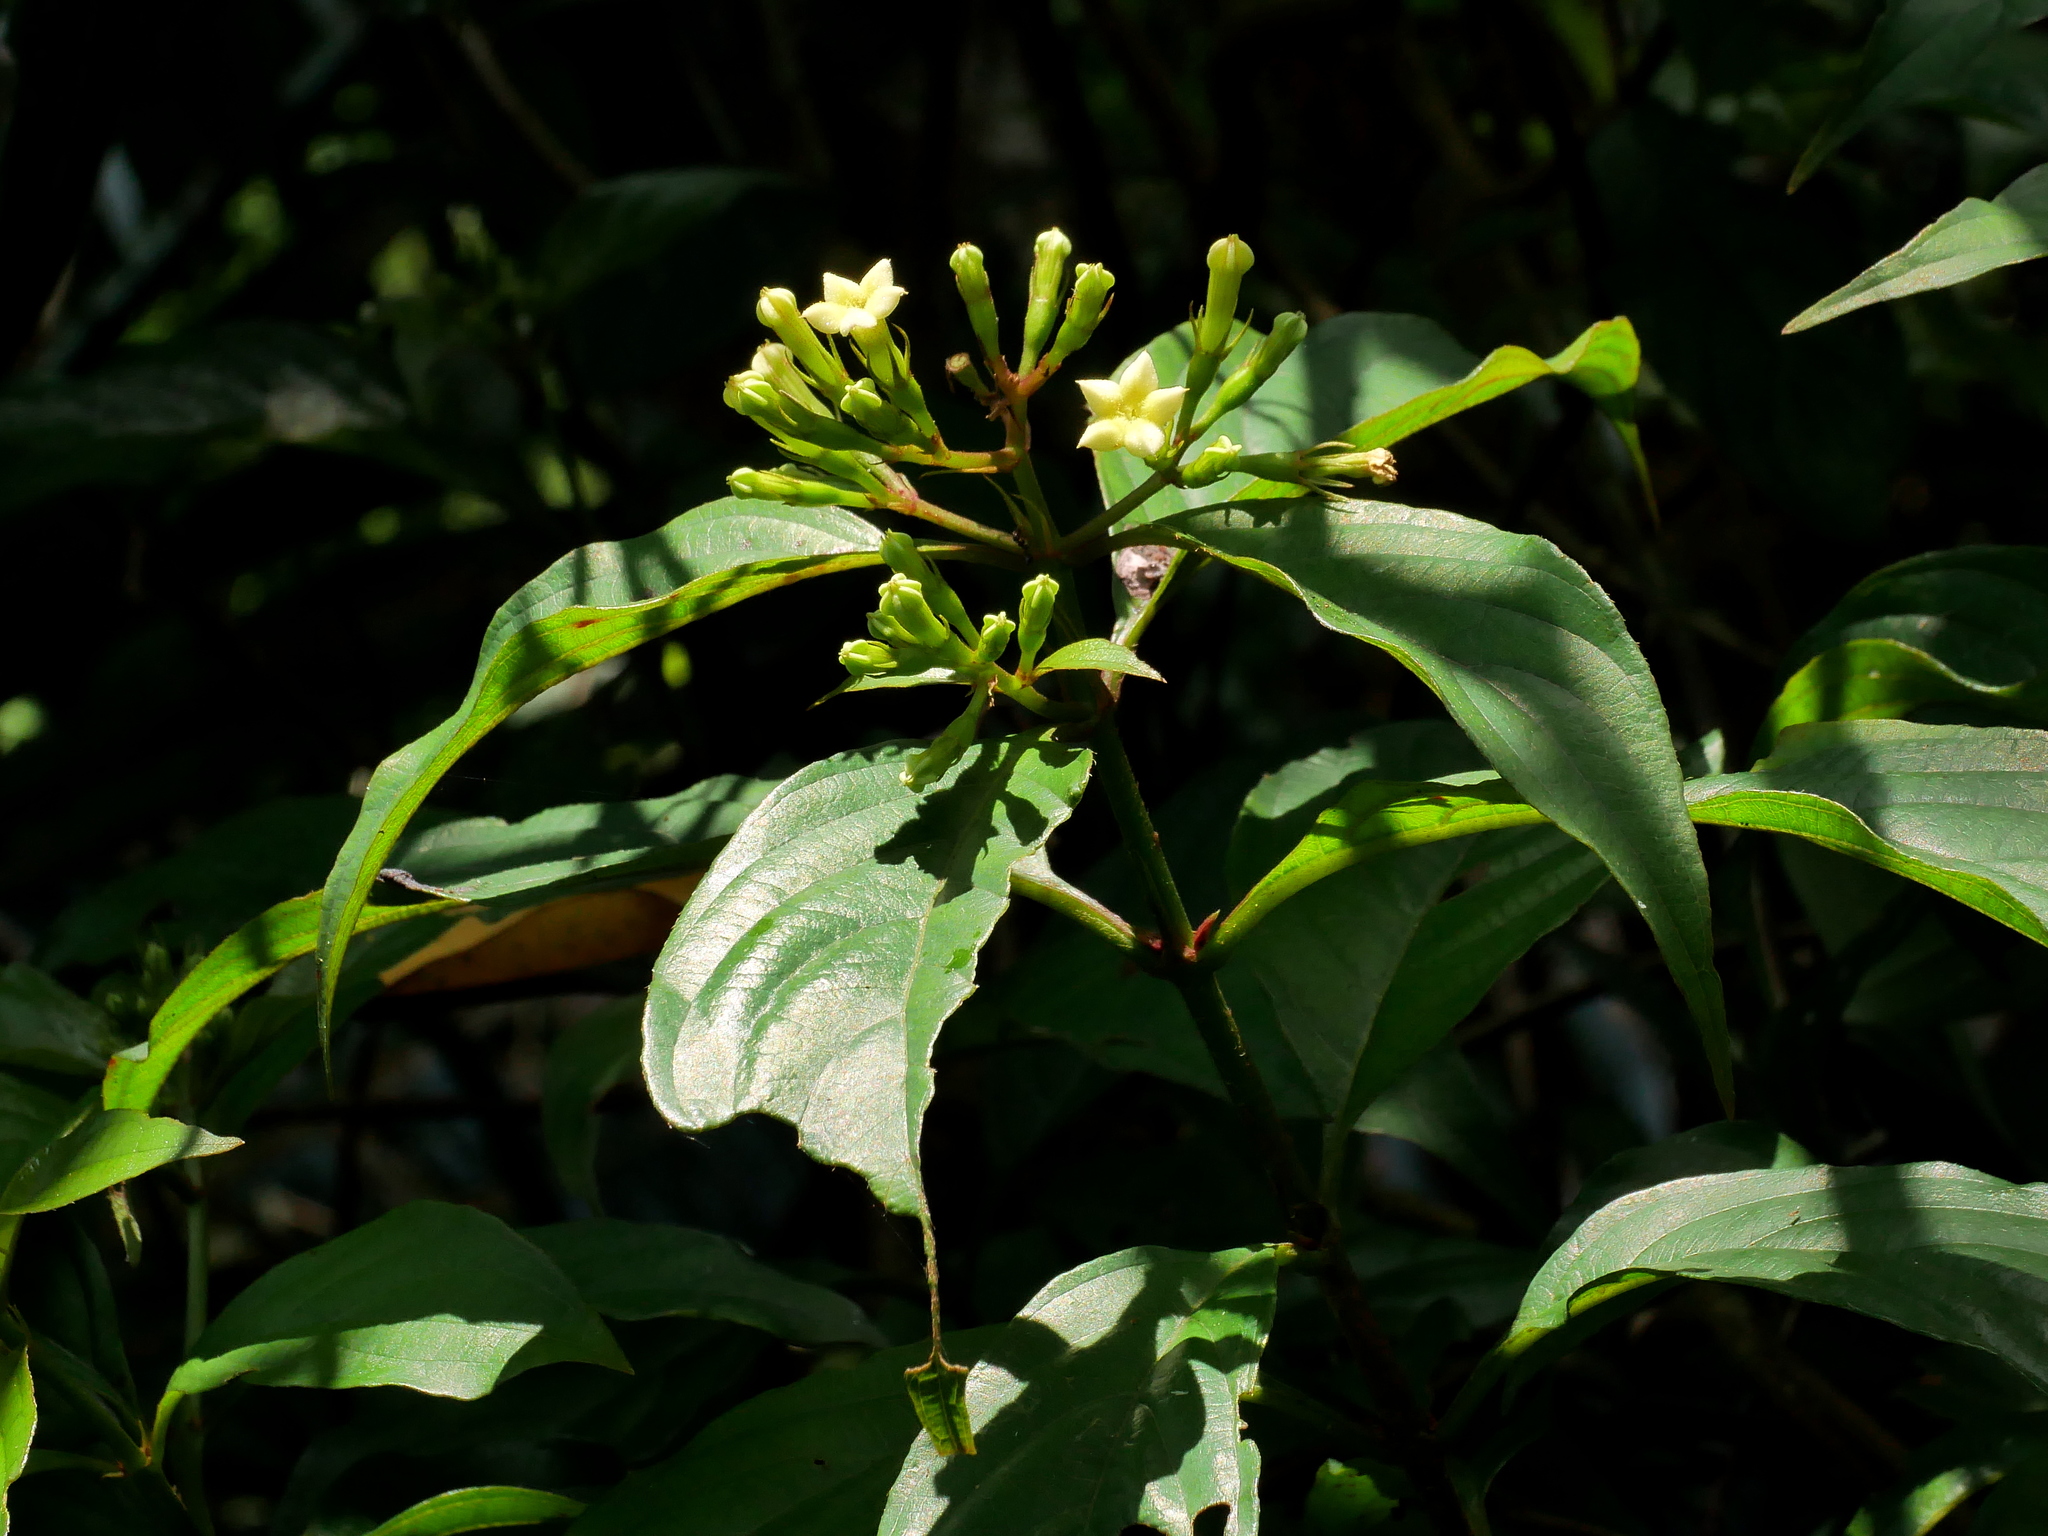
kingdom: Plantae
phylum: Tracheophyta
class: Magnoliopsida
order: Gentianales
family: Rubiaceae
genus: Mussaenda
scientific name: Mussaenda parviflora
